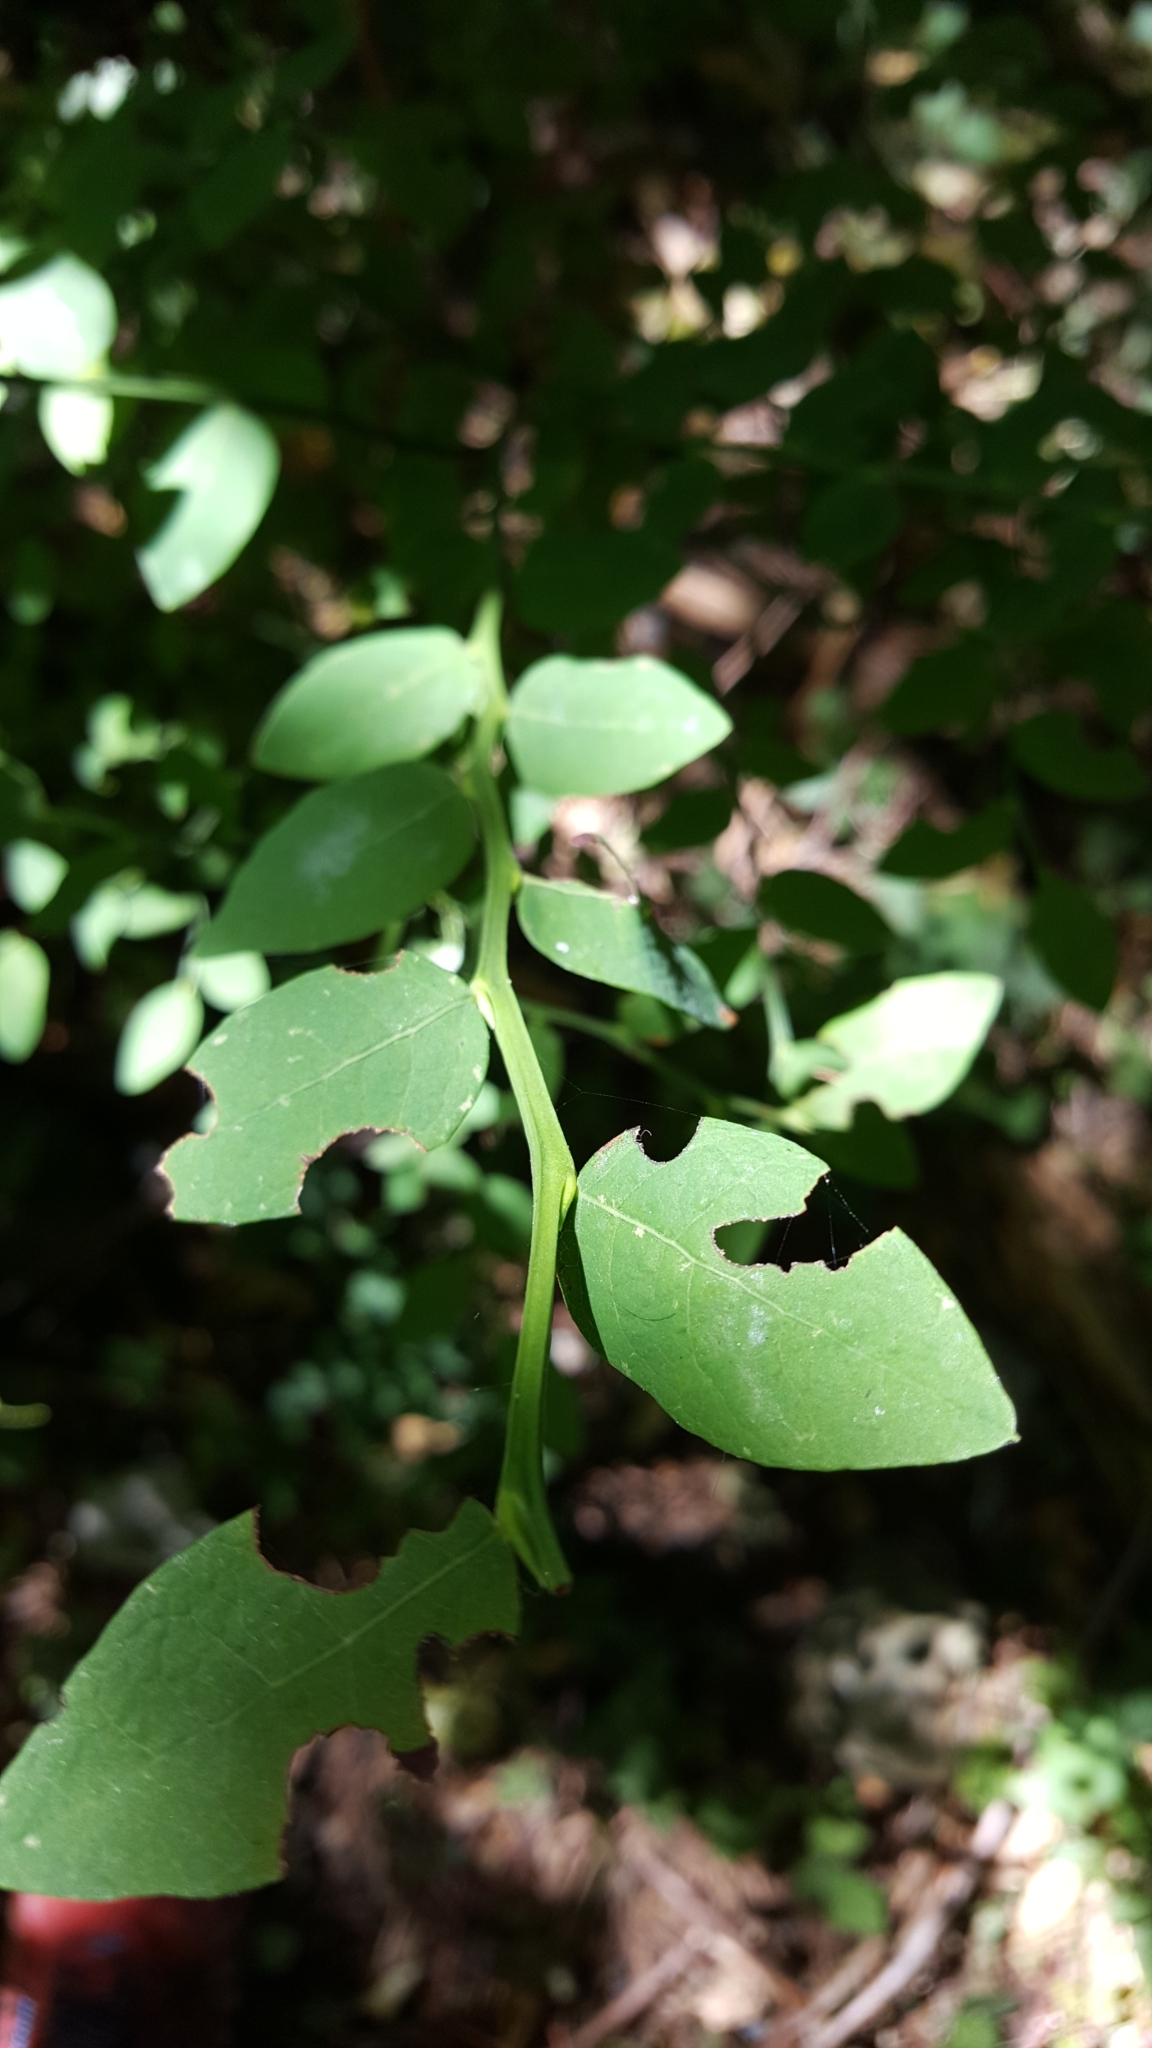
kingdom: Plantae
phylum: Tracheophyta
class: Magnoliopsida
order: Ericales
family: Ericaceae
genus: Vaccinium
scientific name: Vaccinium parvifolium
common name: Red-huckleberry
